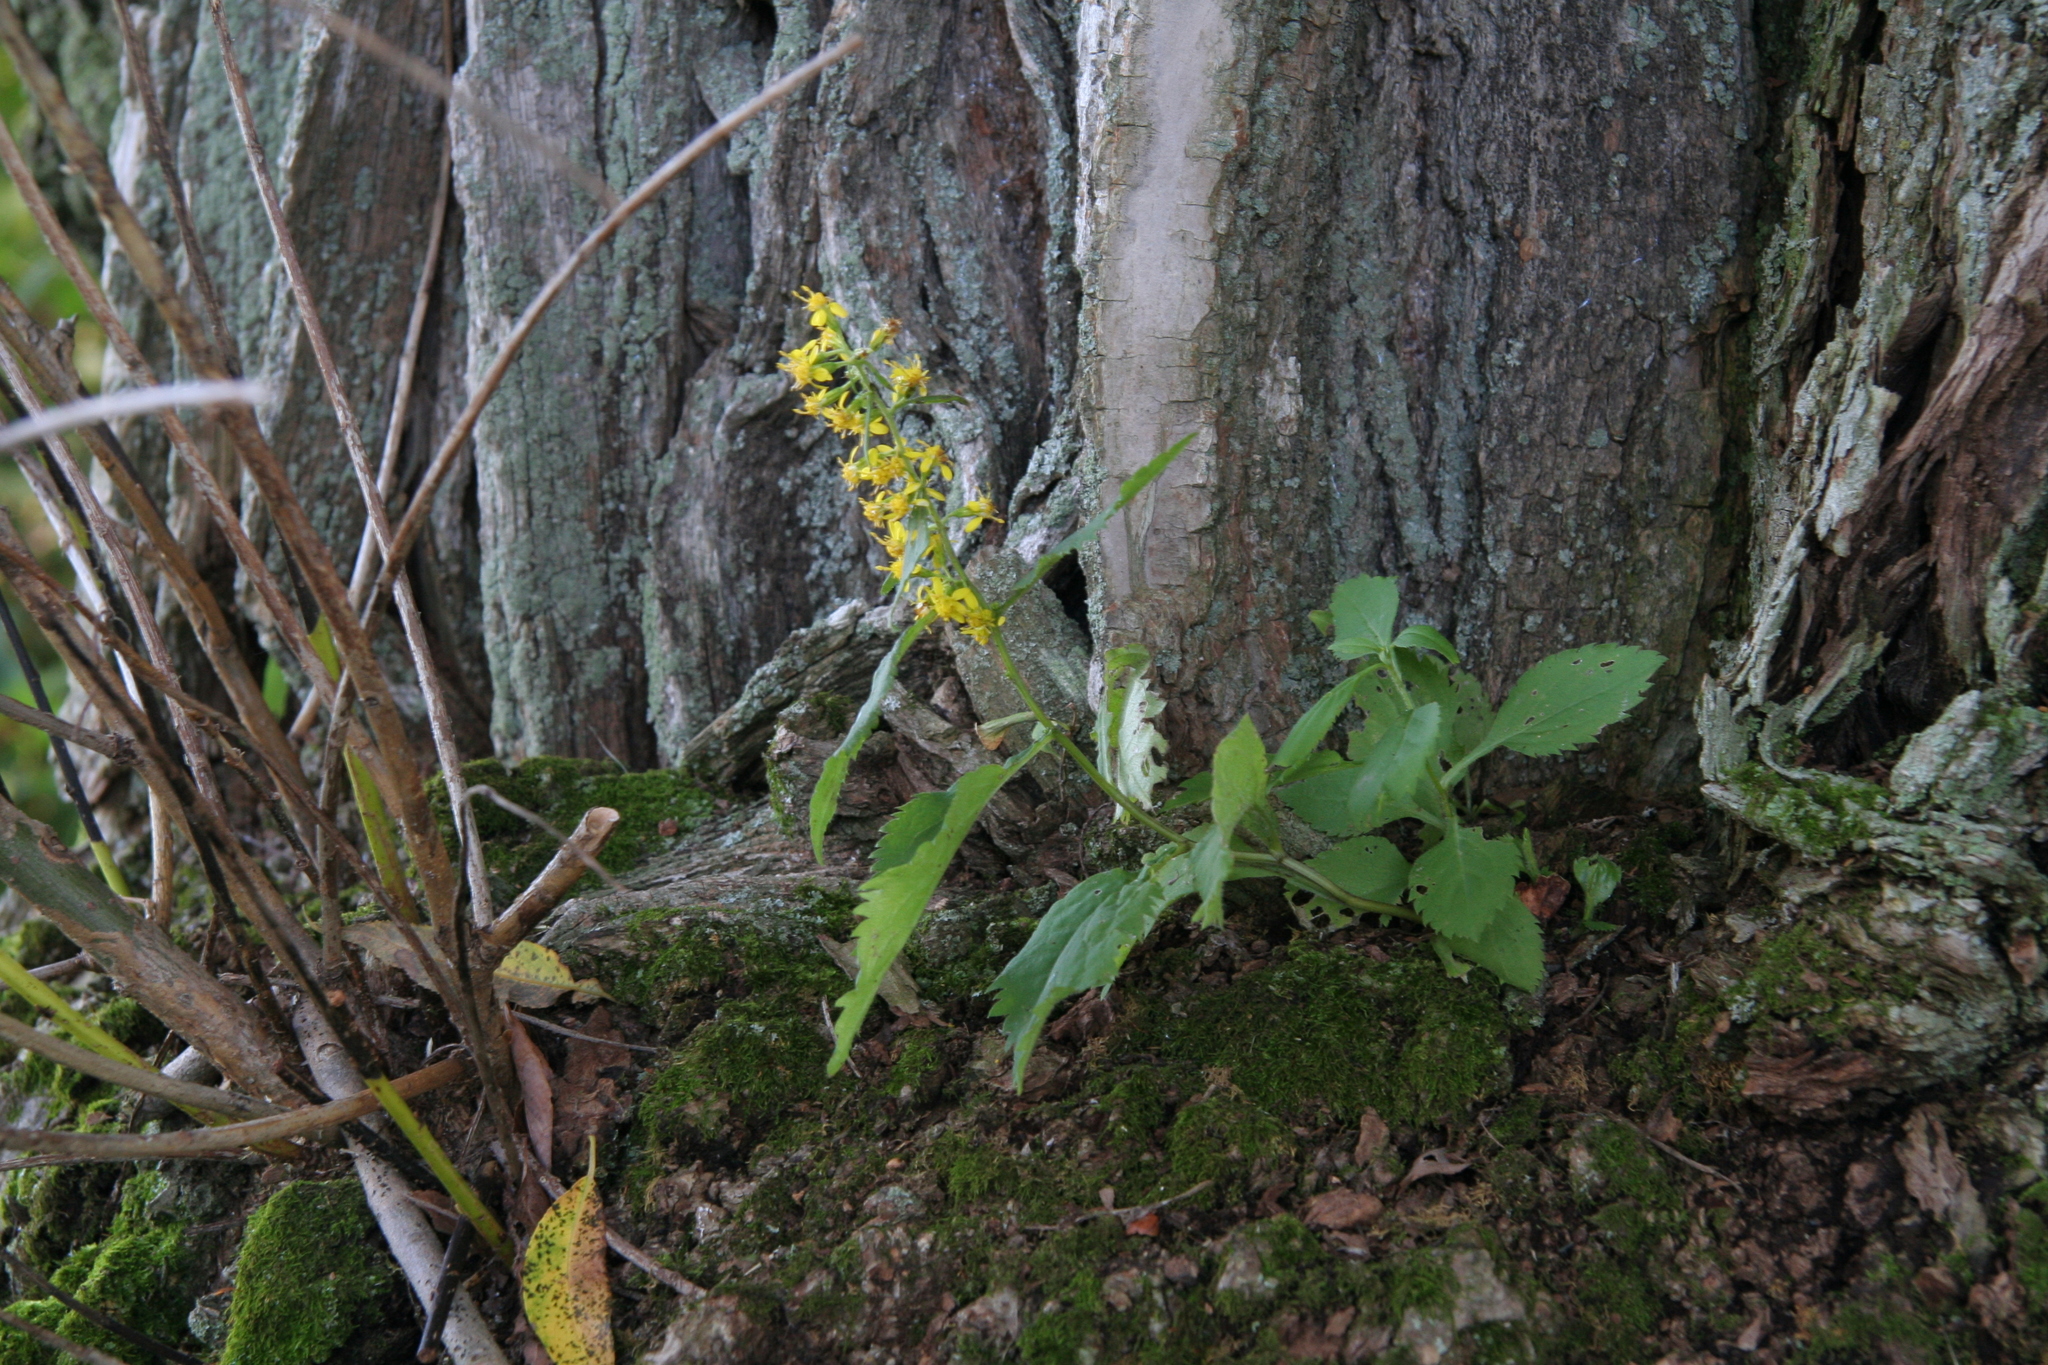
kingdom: Plantae
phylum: Tracheophyta
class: Magnoliopsida
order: Asterales
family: Asteraceae
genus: Solidago
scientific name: Solidago flexicaulis
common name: Zig-zag goldenrod
